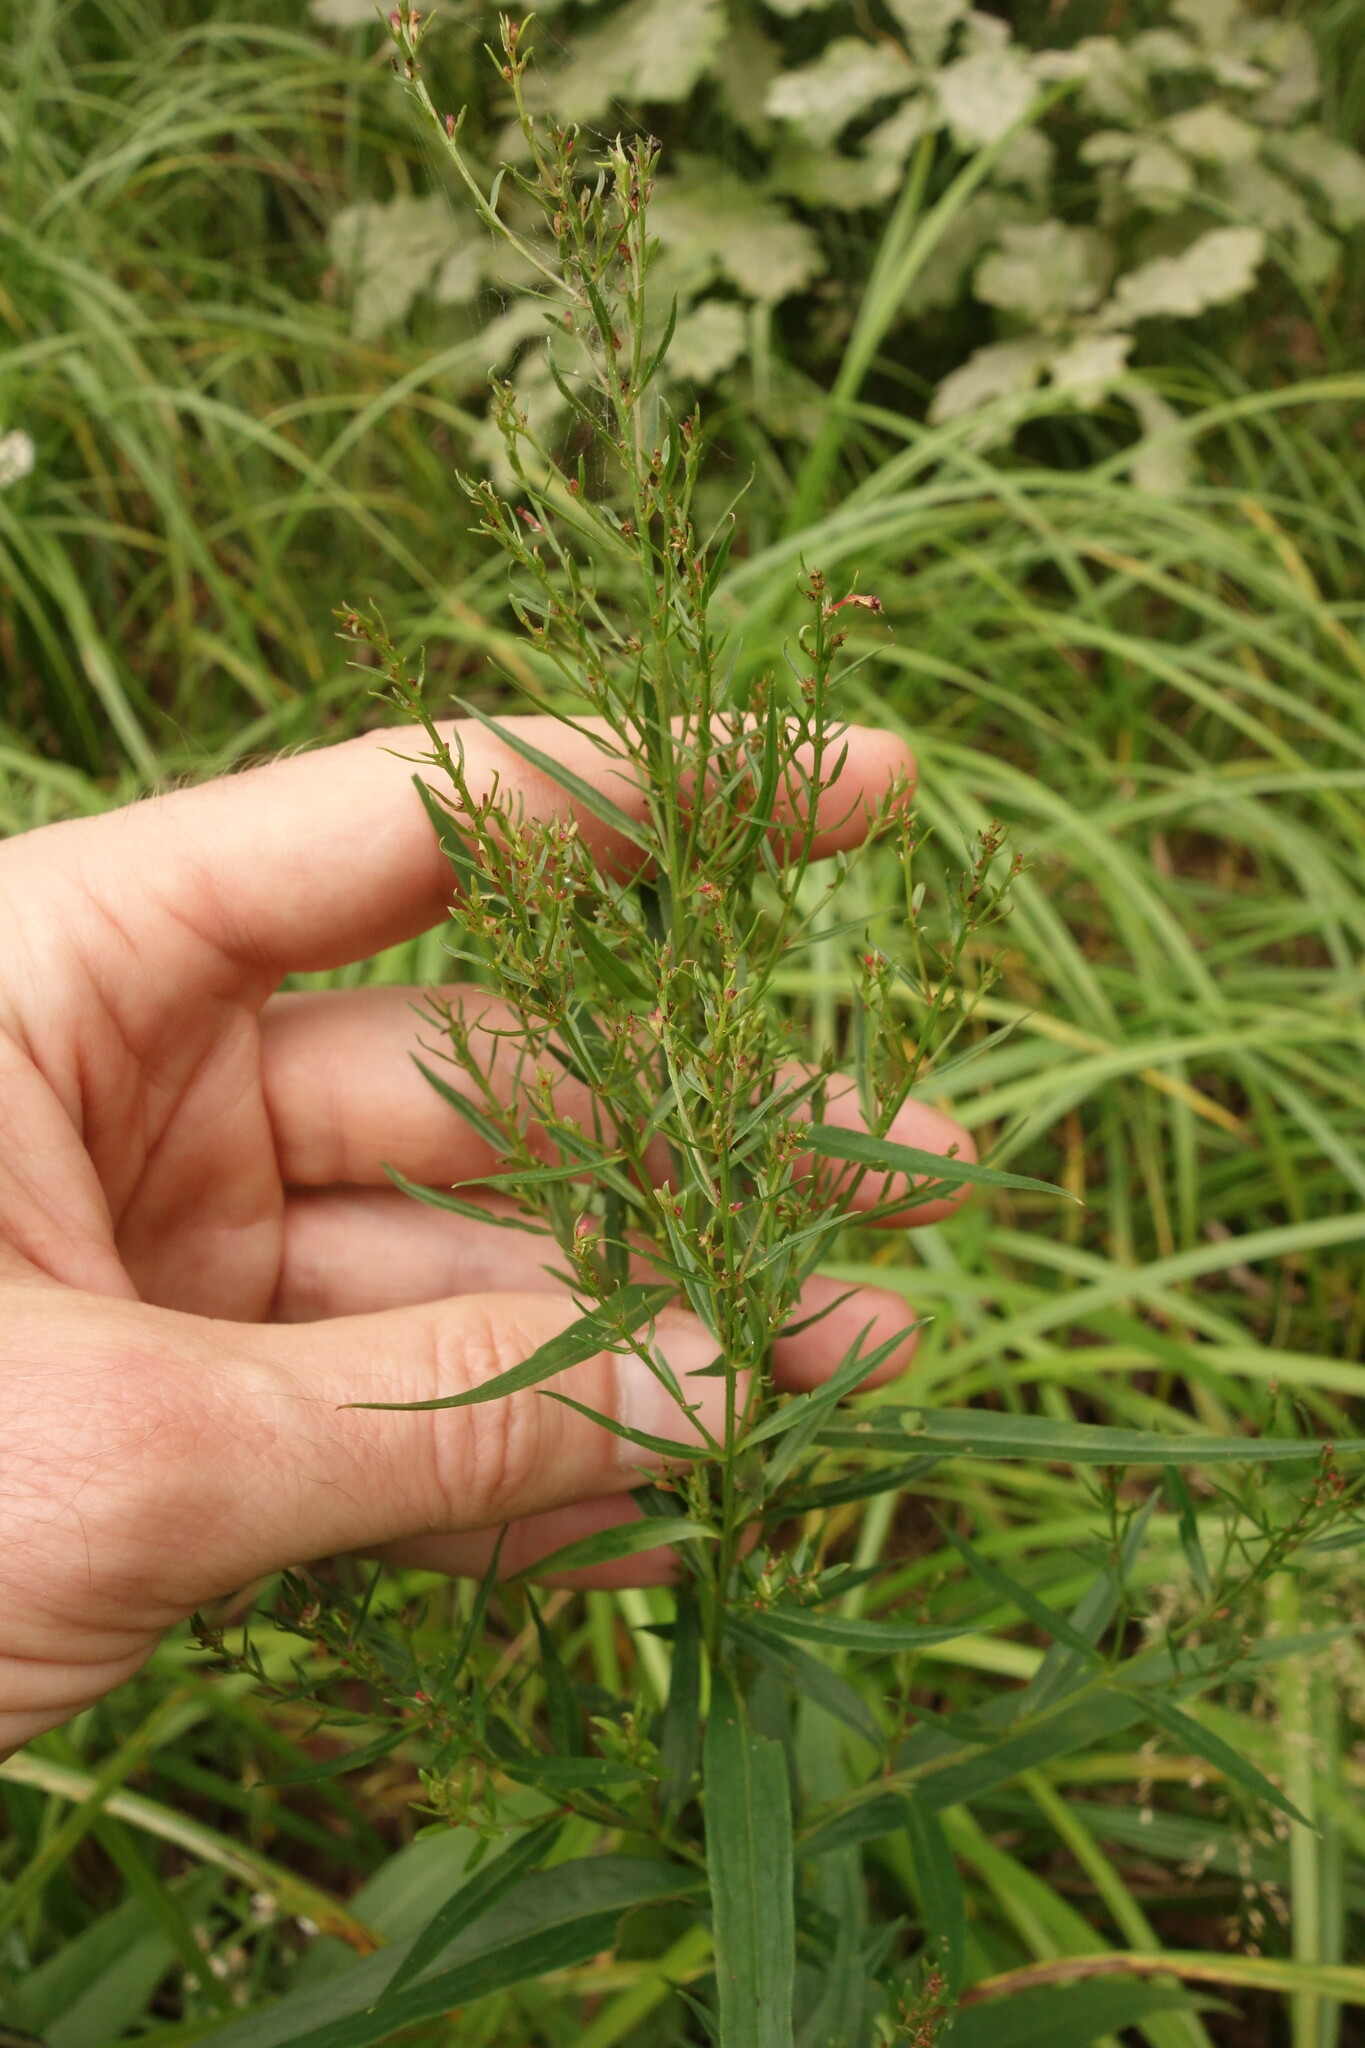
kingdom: Plantae
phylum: Tracheophyta
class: Magnoliopsida
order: Myrtales
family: Lythraceae
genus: Lythrum
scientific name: Lythrum virgatum
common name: European wand loosestrife
